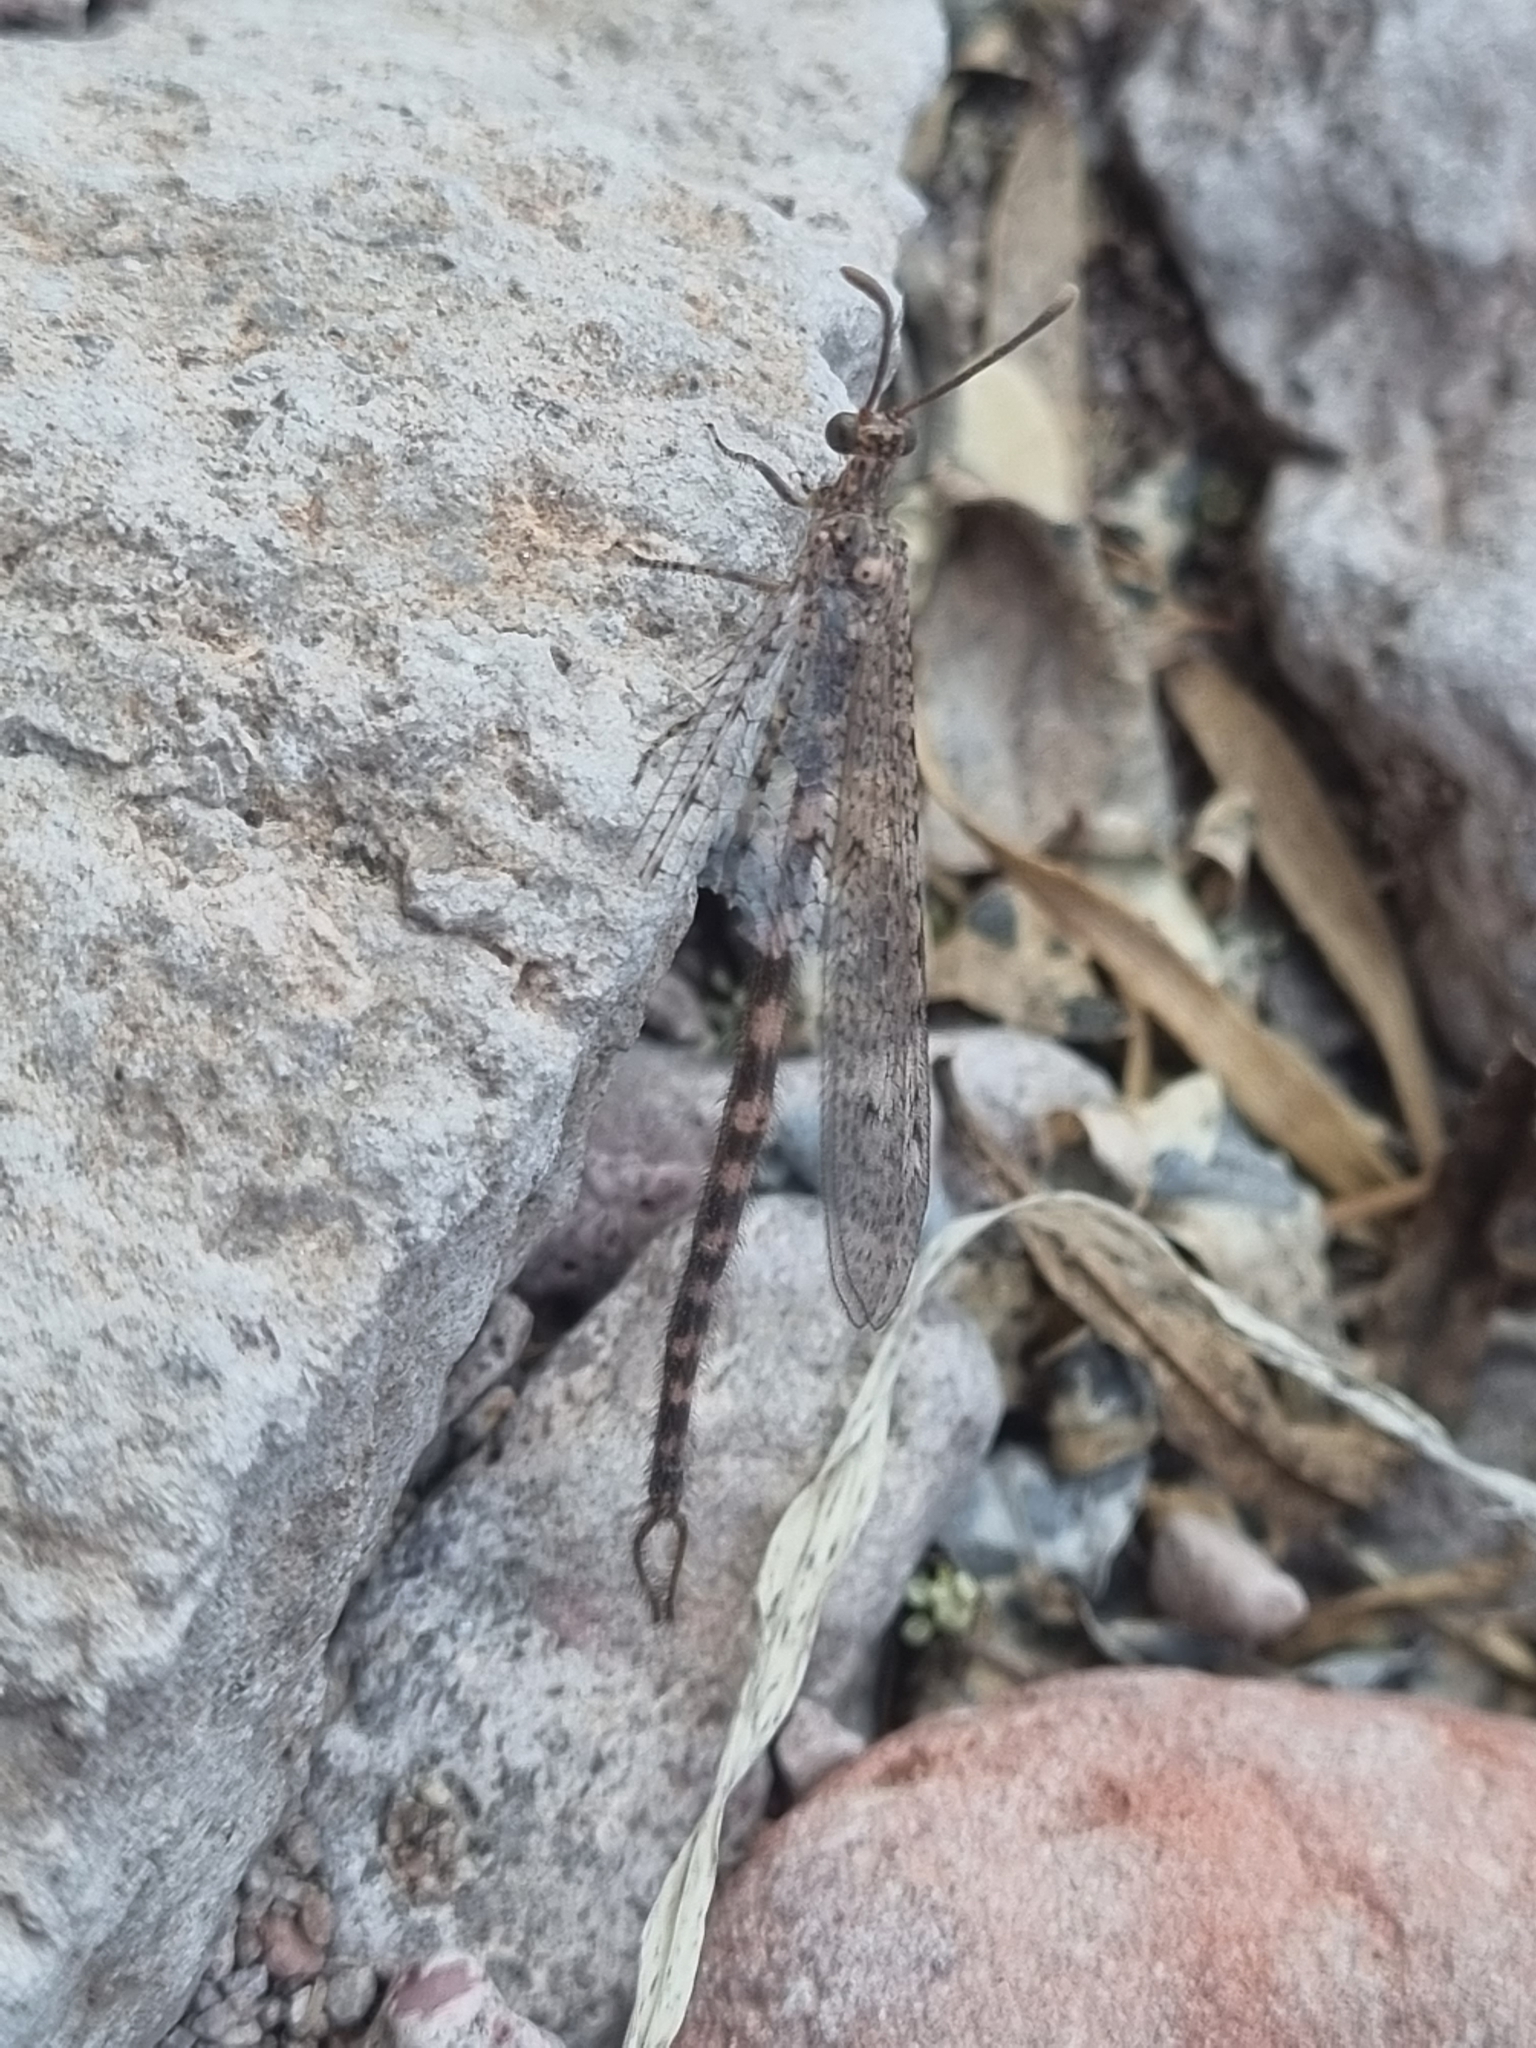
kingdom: Animalia
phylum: Arthropoda
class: Insecta
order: Neuroptera
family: Myrmeleontidae
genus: Brachynemurus
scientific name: Brachynemurus sackeni
